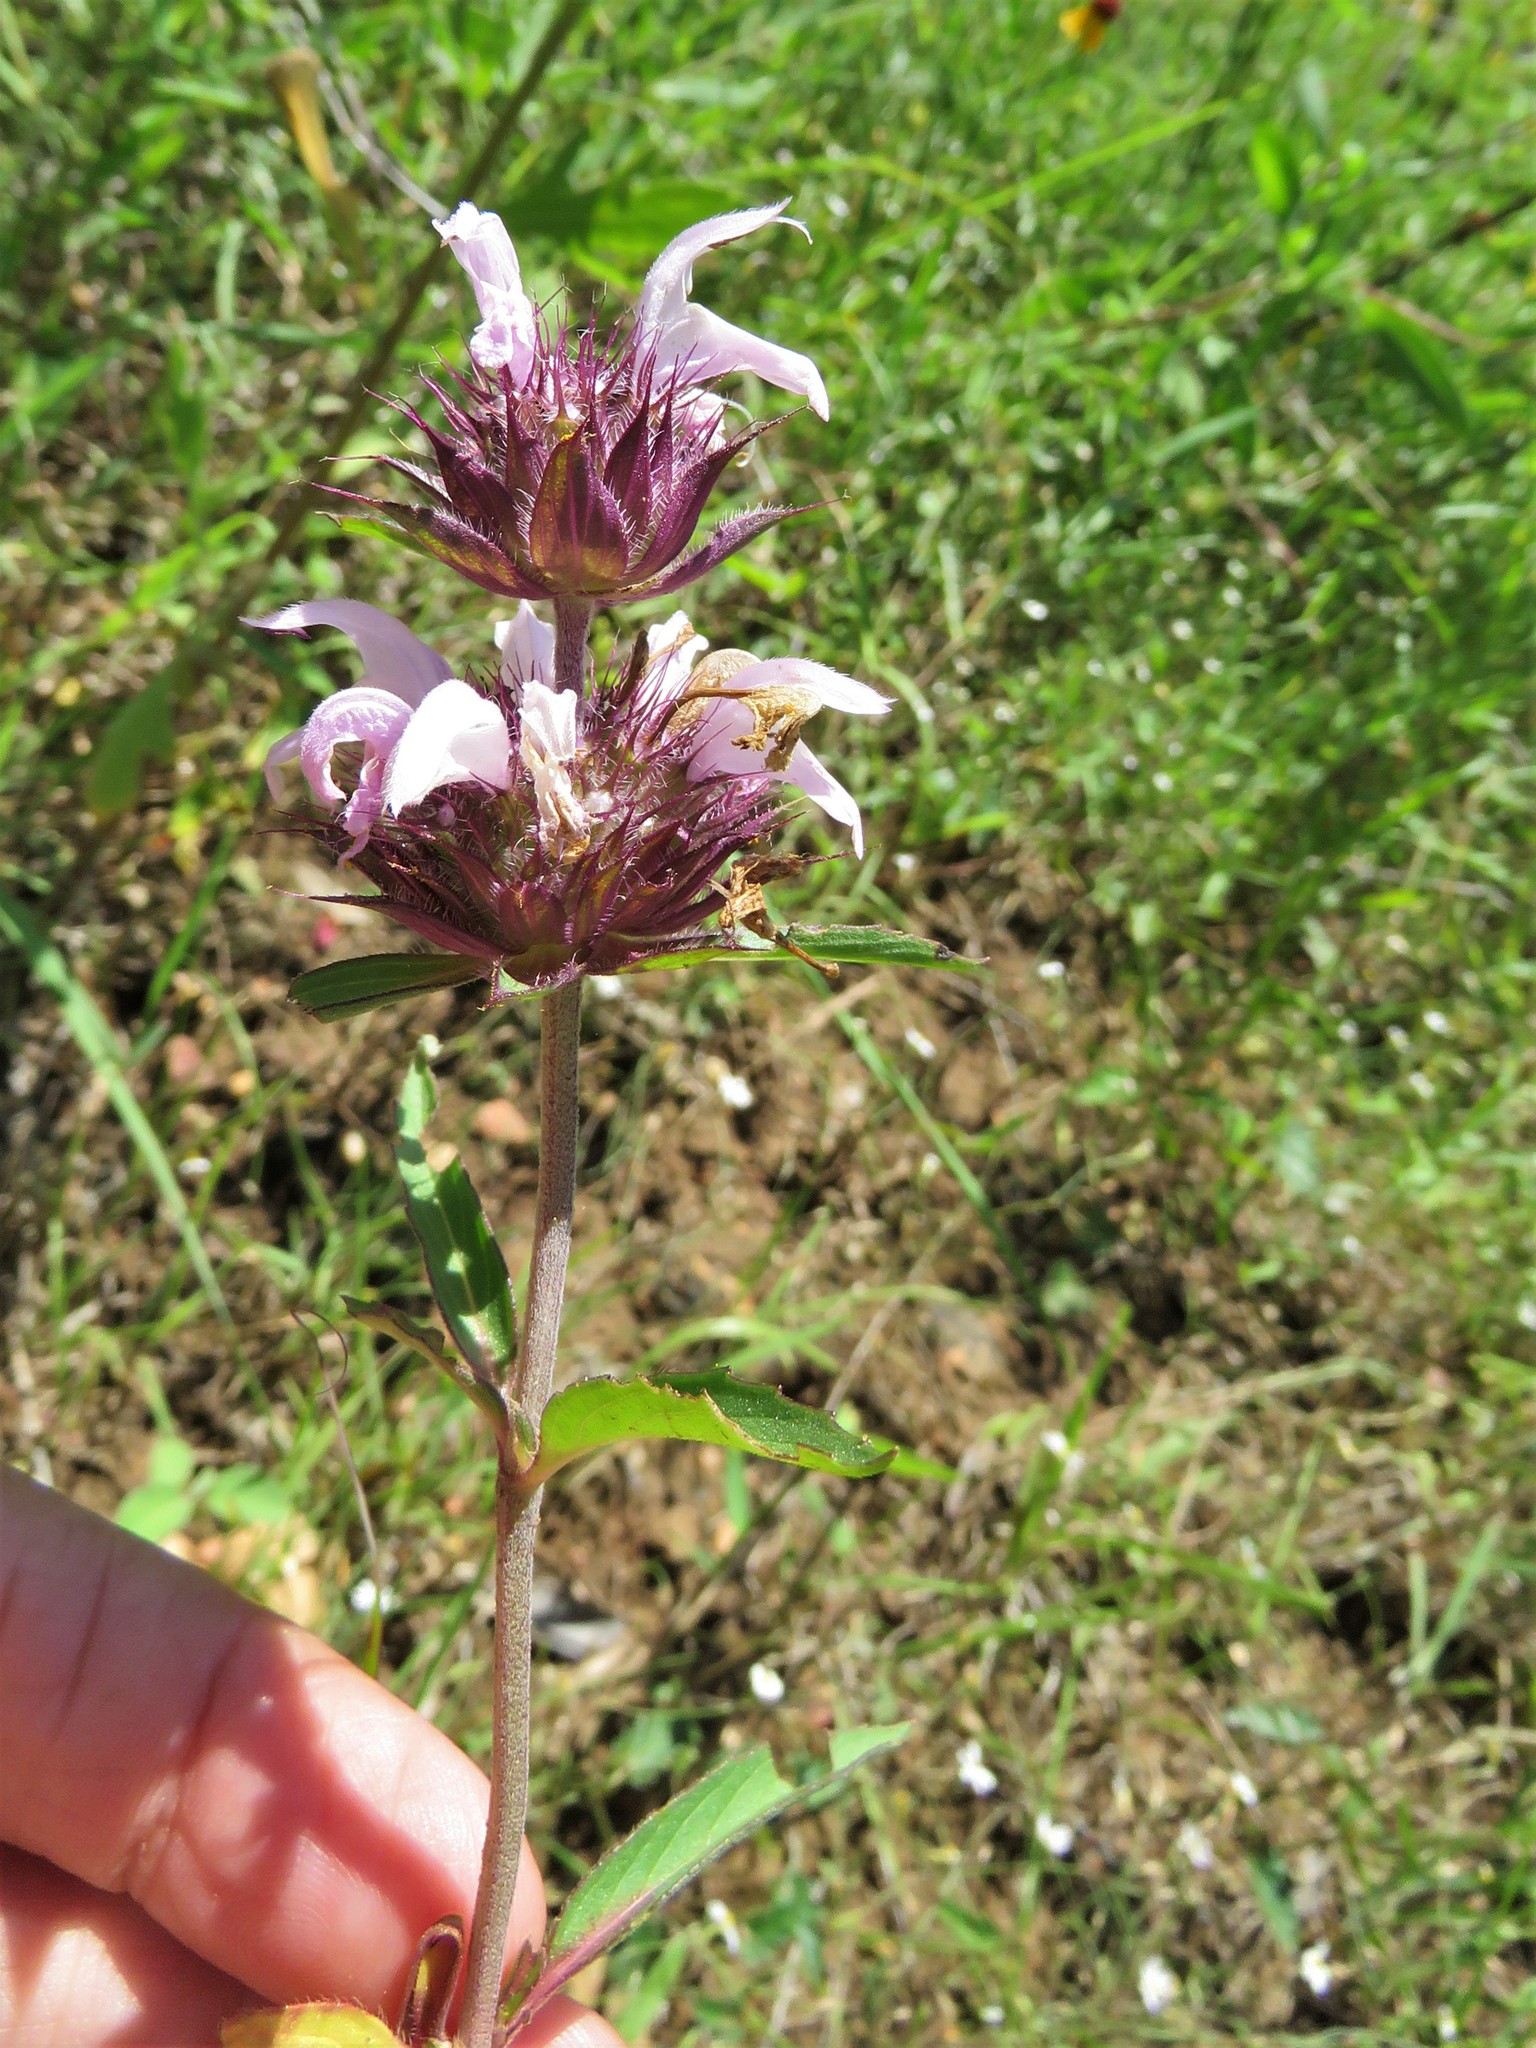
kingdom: Plantae
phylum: Tracheophyta
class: Magnoliopsida
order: Lamiales
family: Lamiaceae
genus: Monarda
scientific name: Monarda clinopodioides
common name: Basil beebalm
